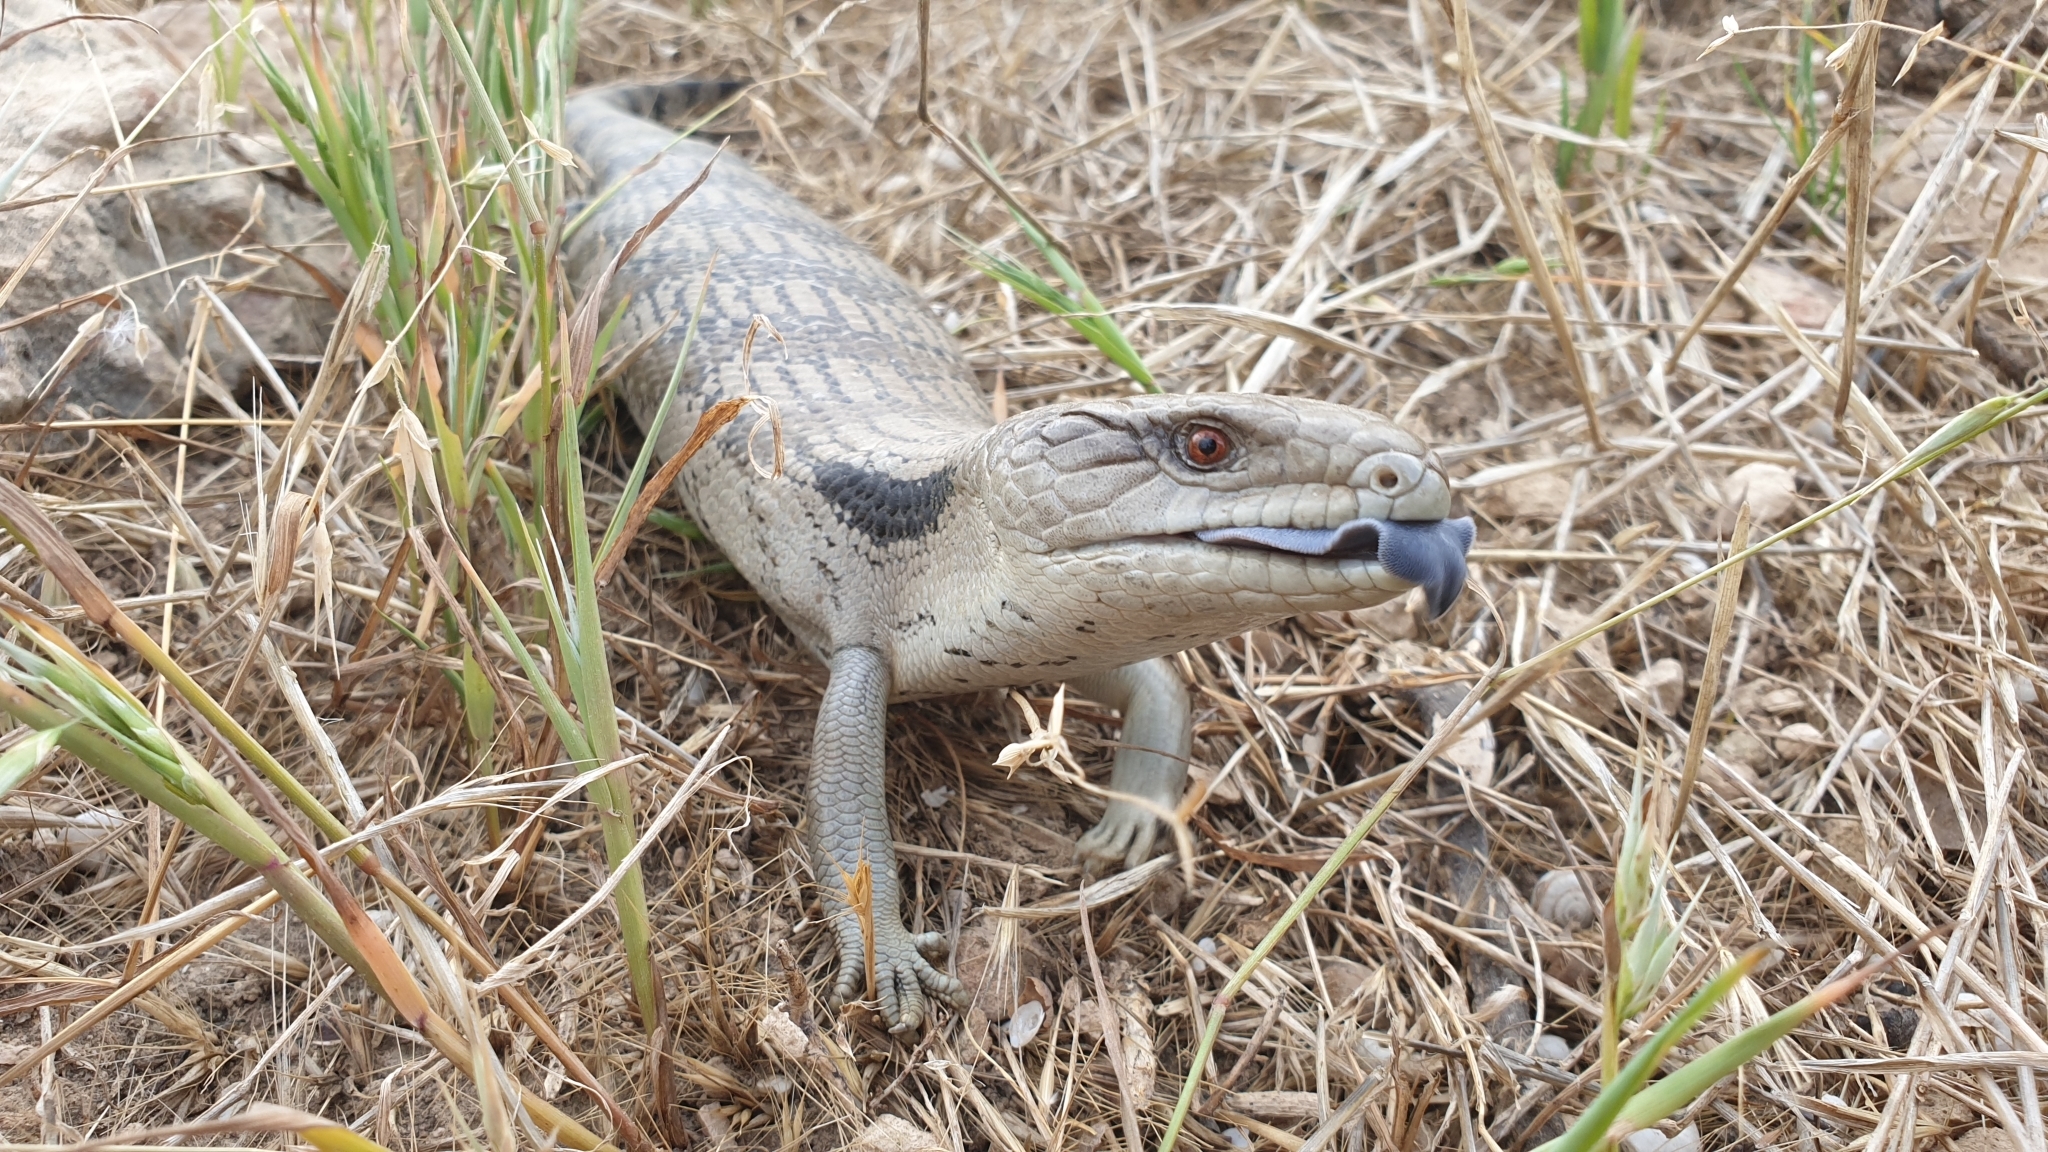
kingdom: Animalia
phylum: Chordata
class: Squamata
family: Scincidae
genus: Tiliqua
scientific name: Tiliqua scincoides
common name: Common bluetongue
